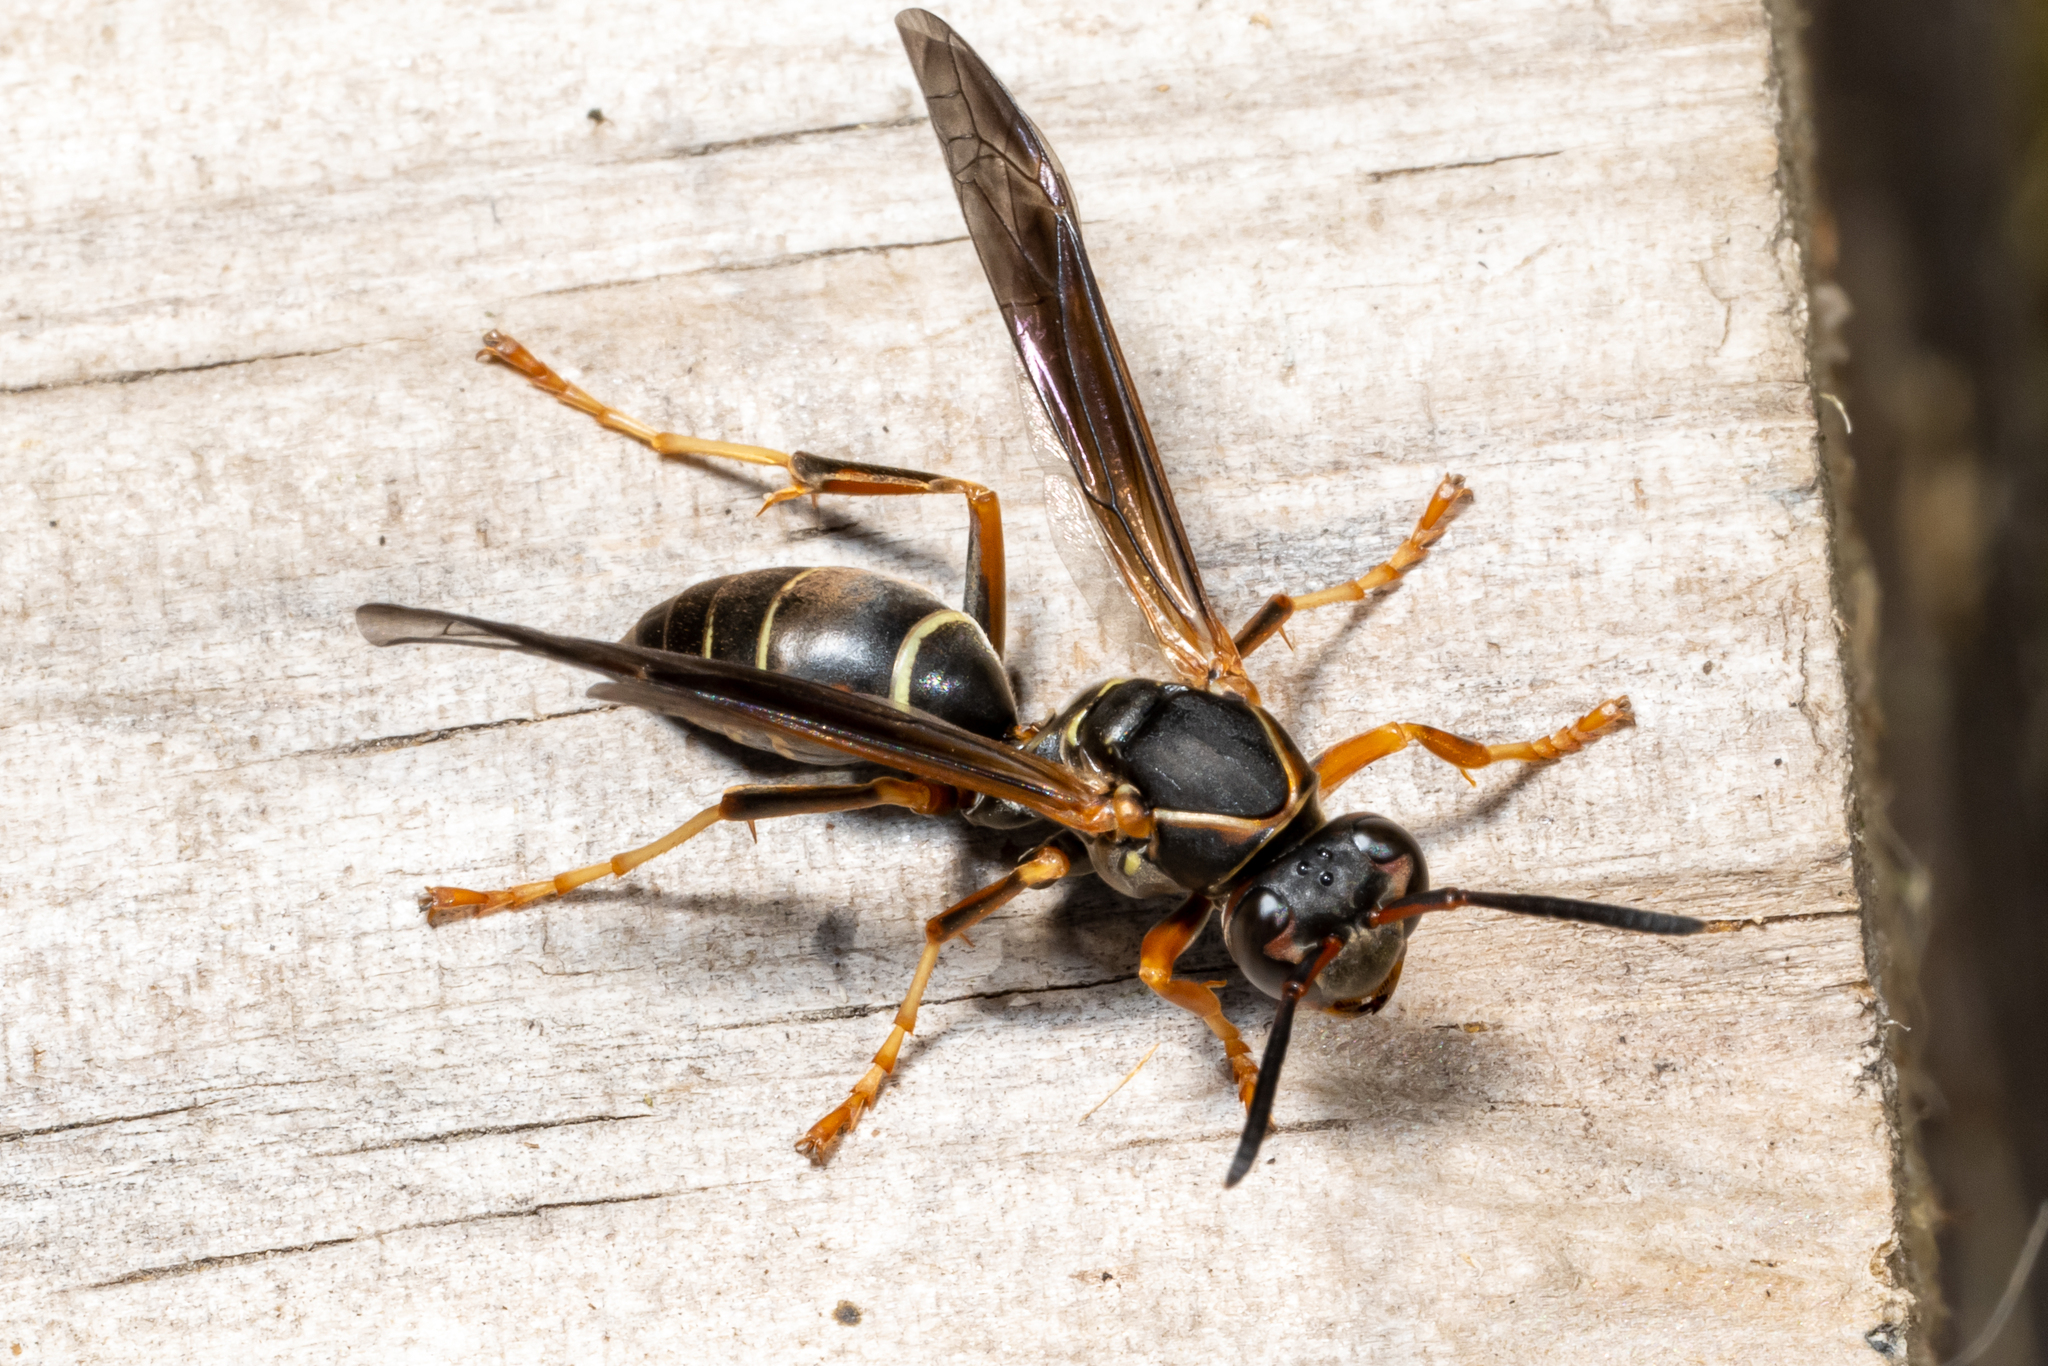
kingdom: Animalia
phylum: Arthropoda
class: Insecta
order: Hymenoptera
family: Eumenidae
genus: Polistes
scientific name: Polistes fuscatus
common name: Dark paper wasp
